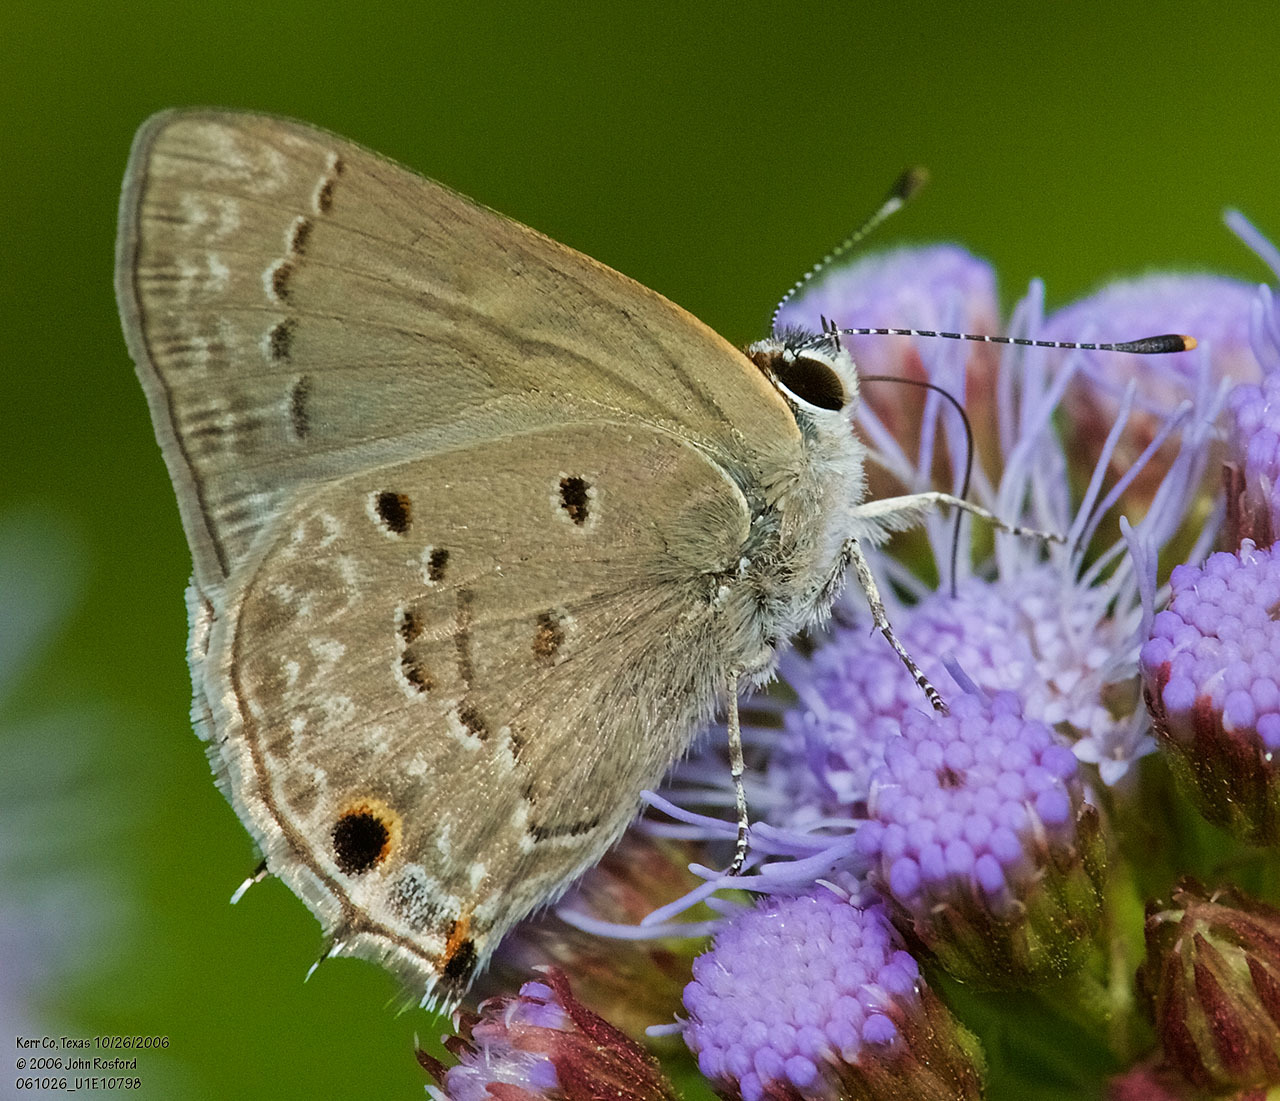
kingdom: Animalia
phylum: Arthropoda
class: Insecta
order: Lepidoptera
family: Lycaenidae
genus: Callicista
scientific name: Callicista columella
